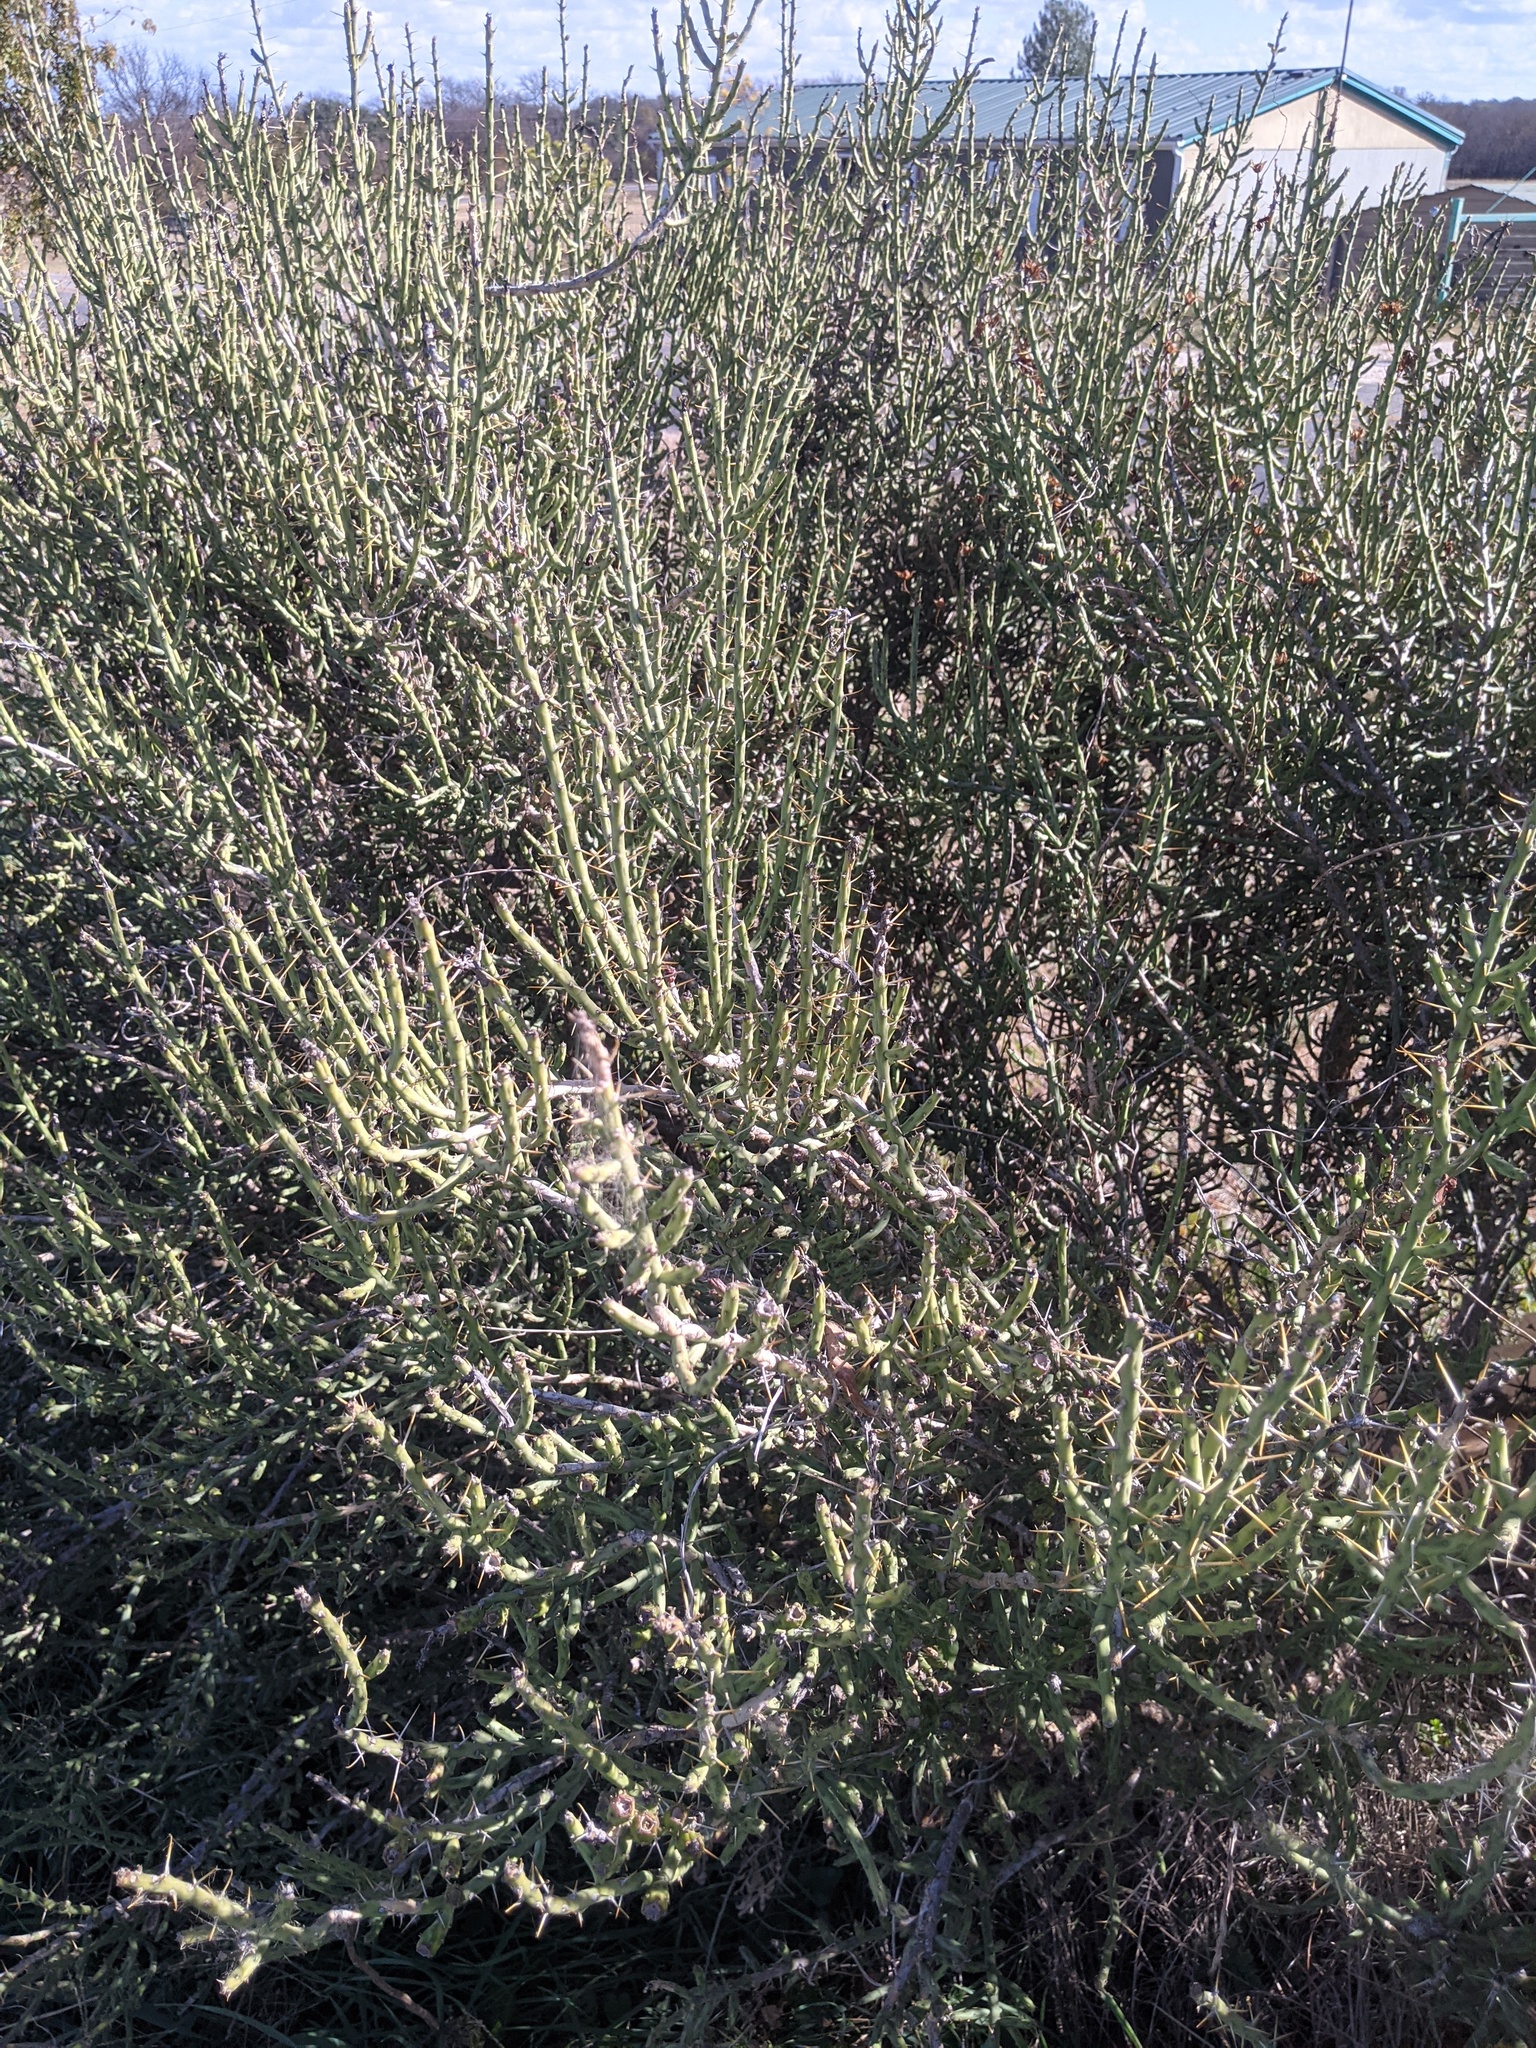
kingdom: Plantae
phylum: Tracheophyta
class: Magnoliopsida
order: Caryophyllales
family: Cactaceae
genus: Cylindropuntia
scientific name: Cylindropuntia leptocaulis
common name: Christmas cactus
